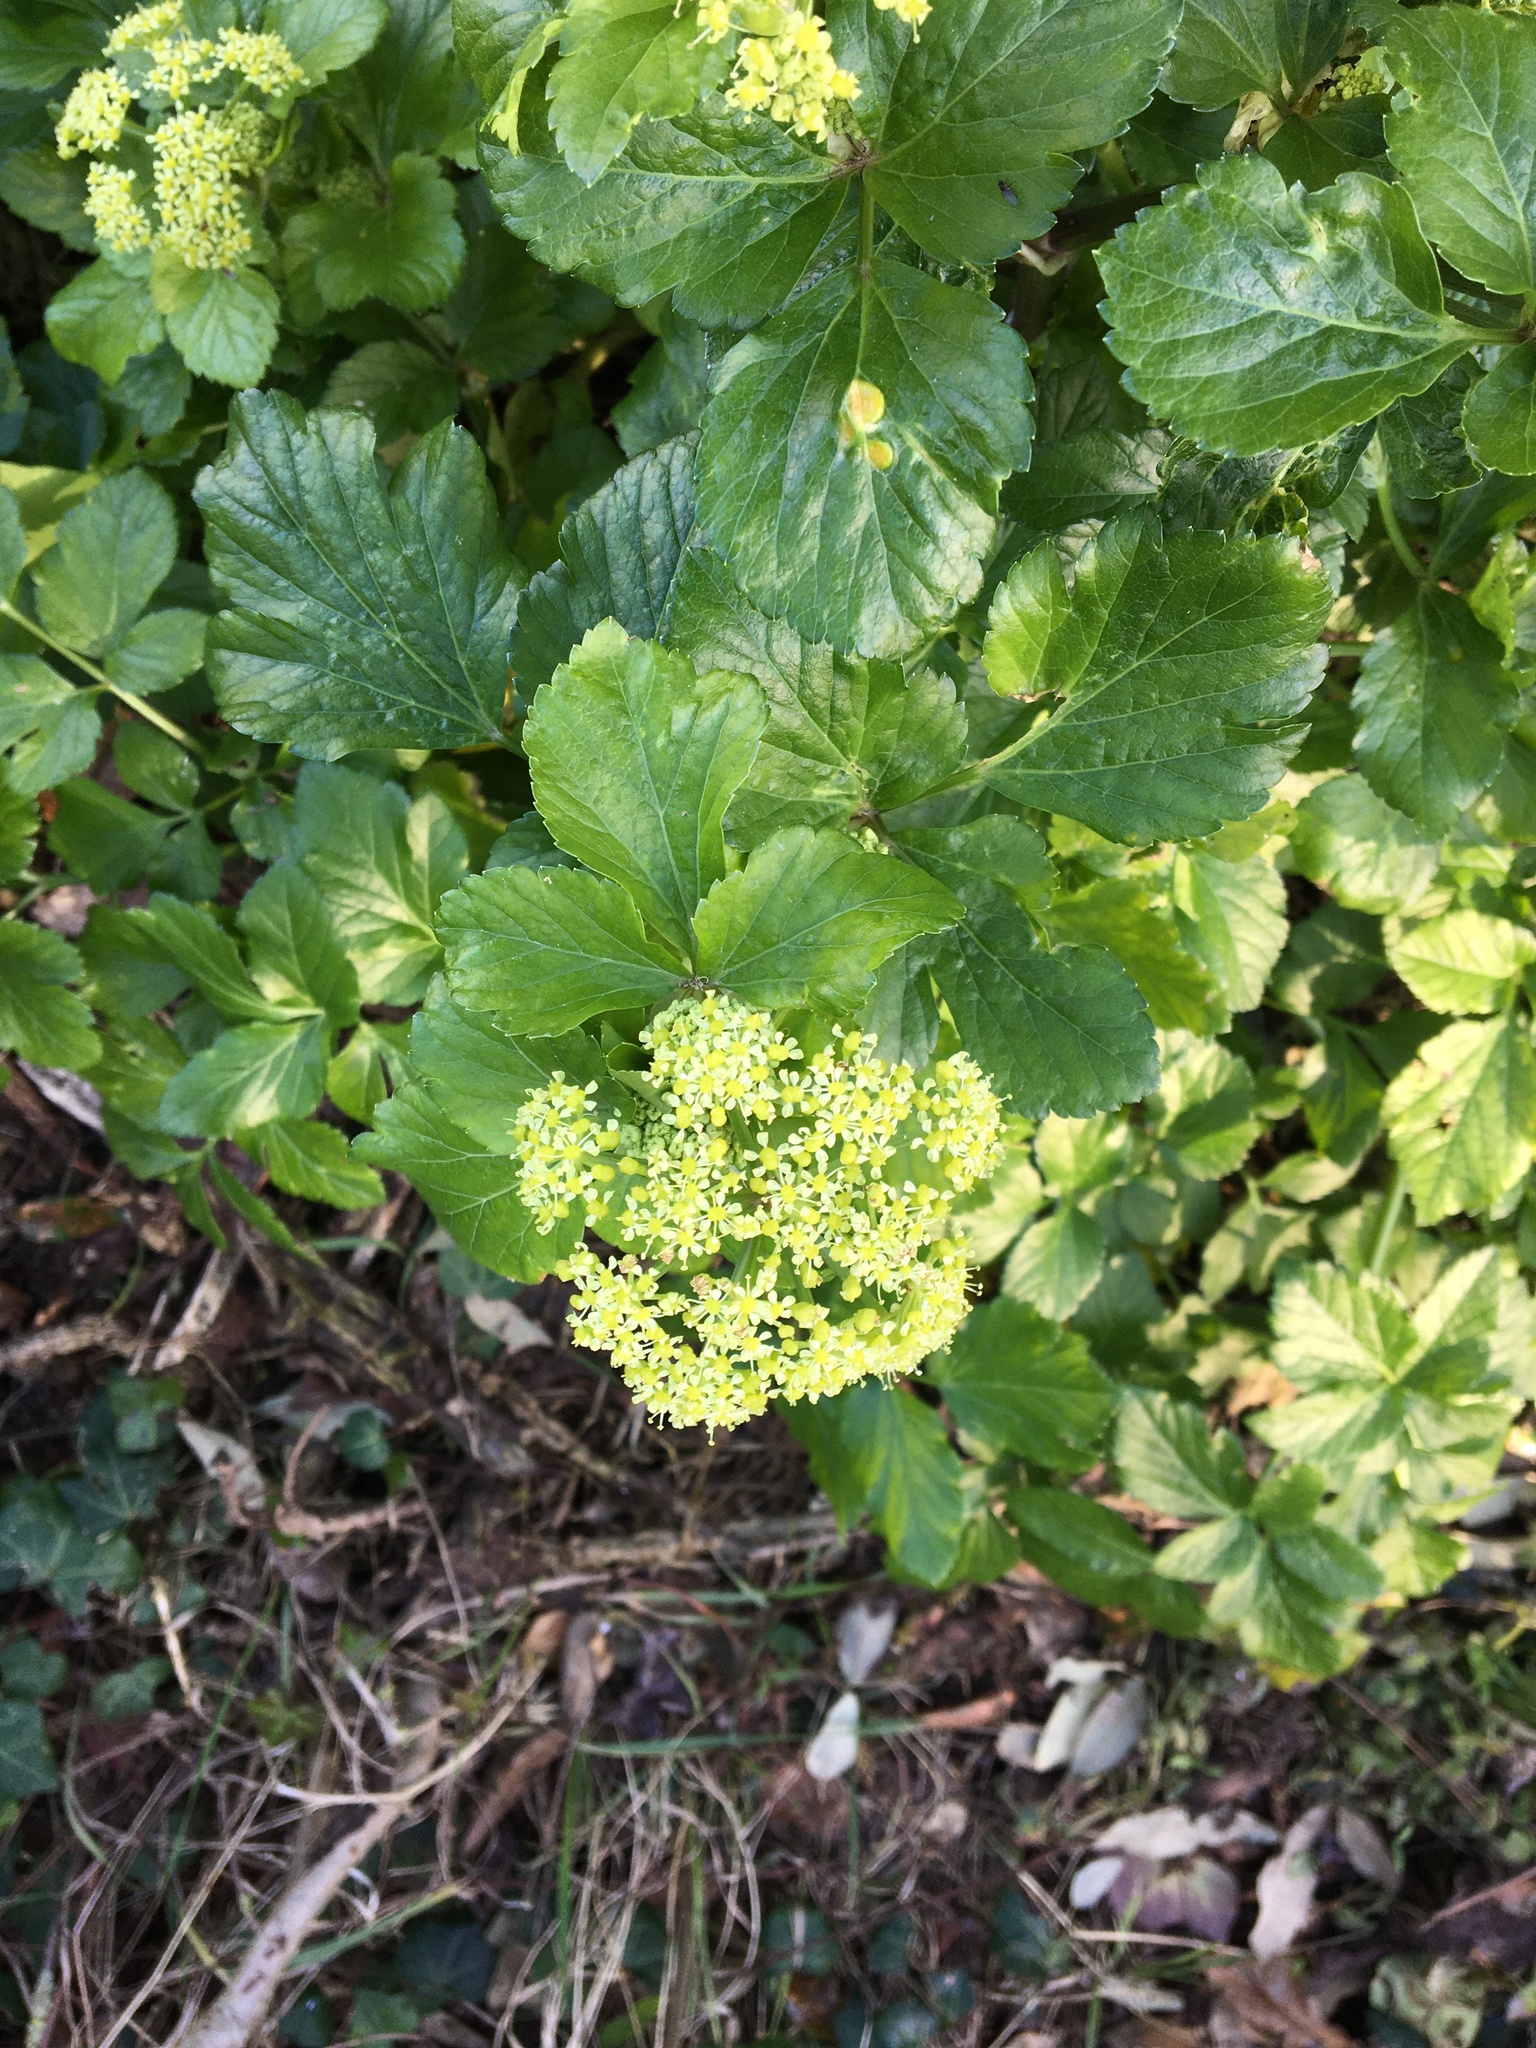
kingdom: Plantae
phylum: Tracheophyta
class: Magnoliopsida
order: Apiales
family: Apiaceae
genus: Smyrnium
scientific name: Smyrnium olusatrum
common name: Alexanders
